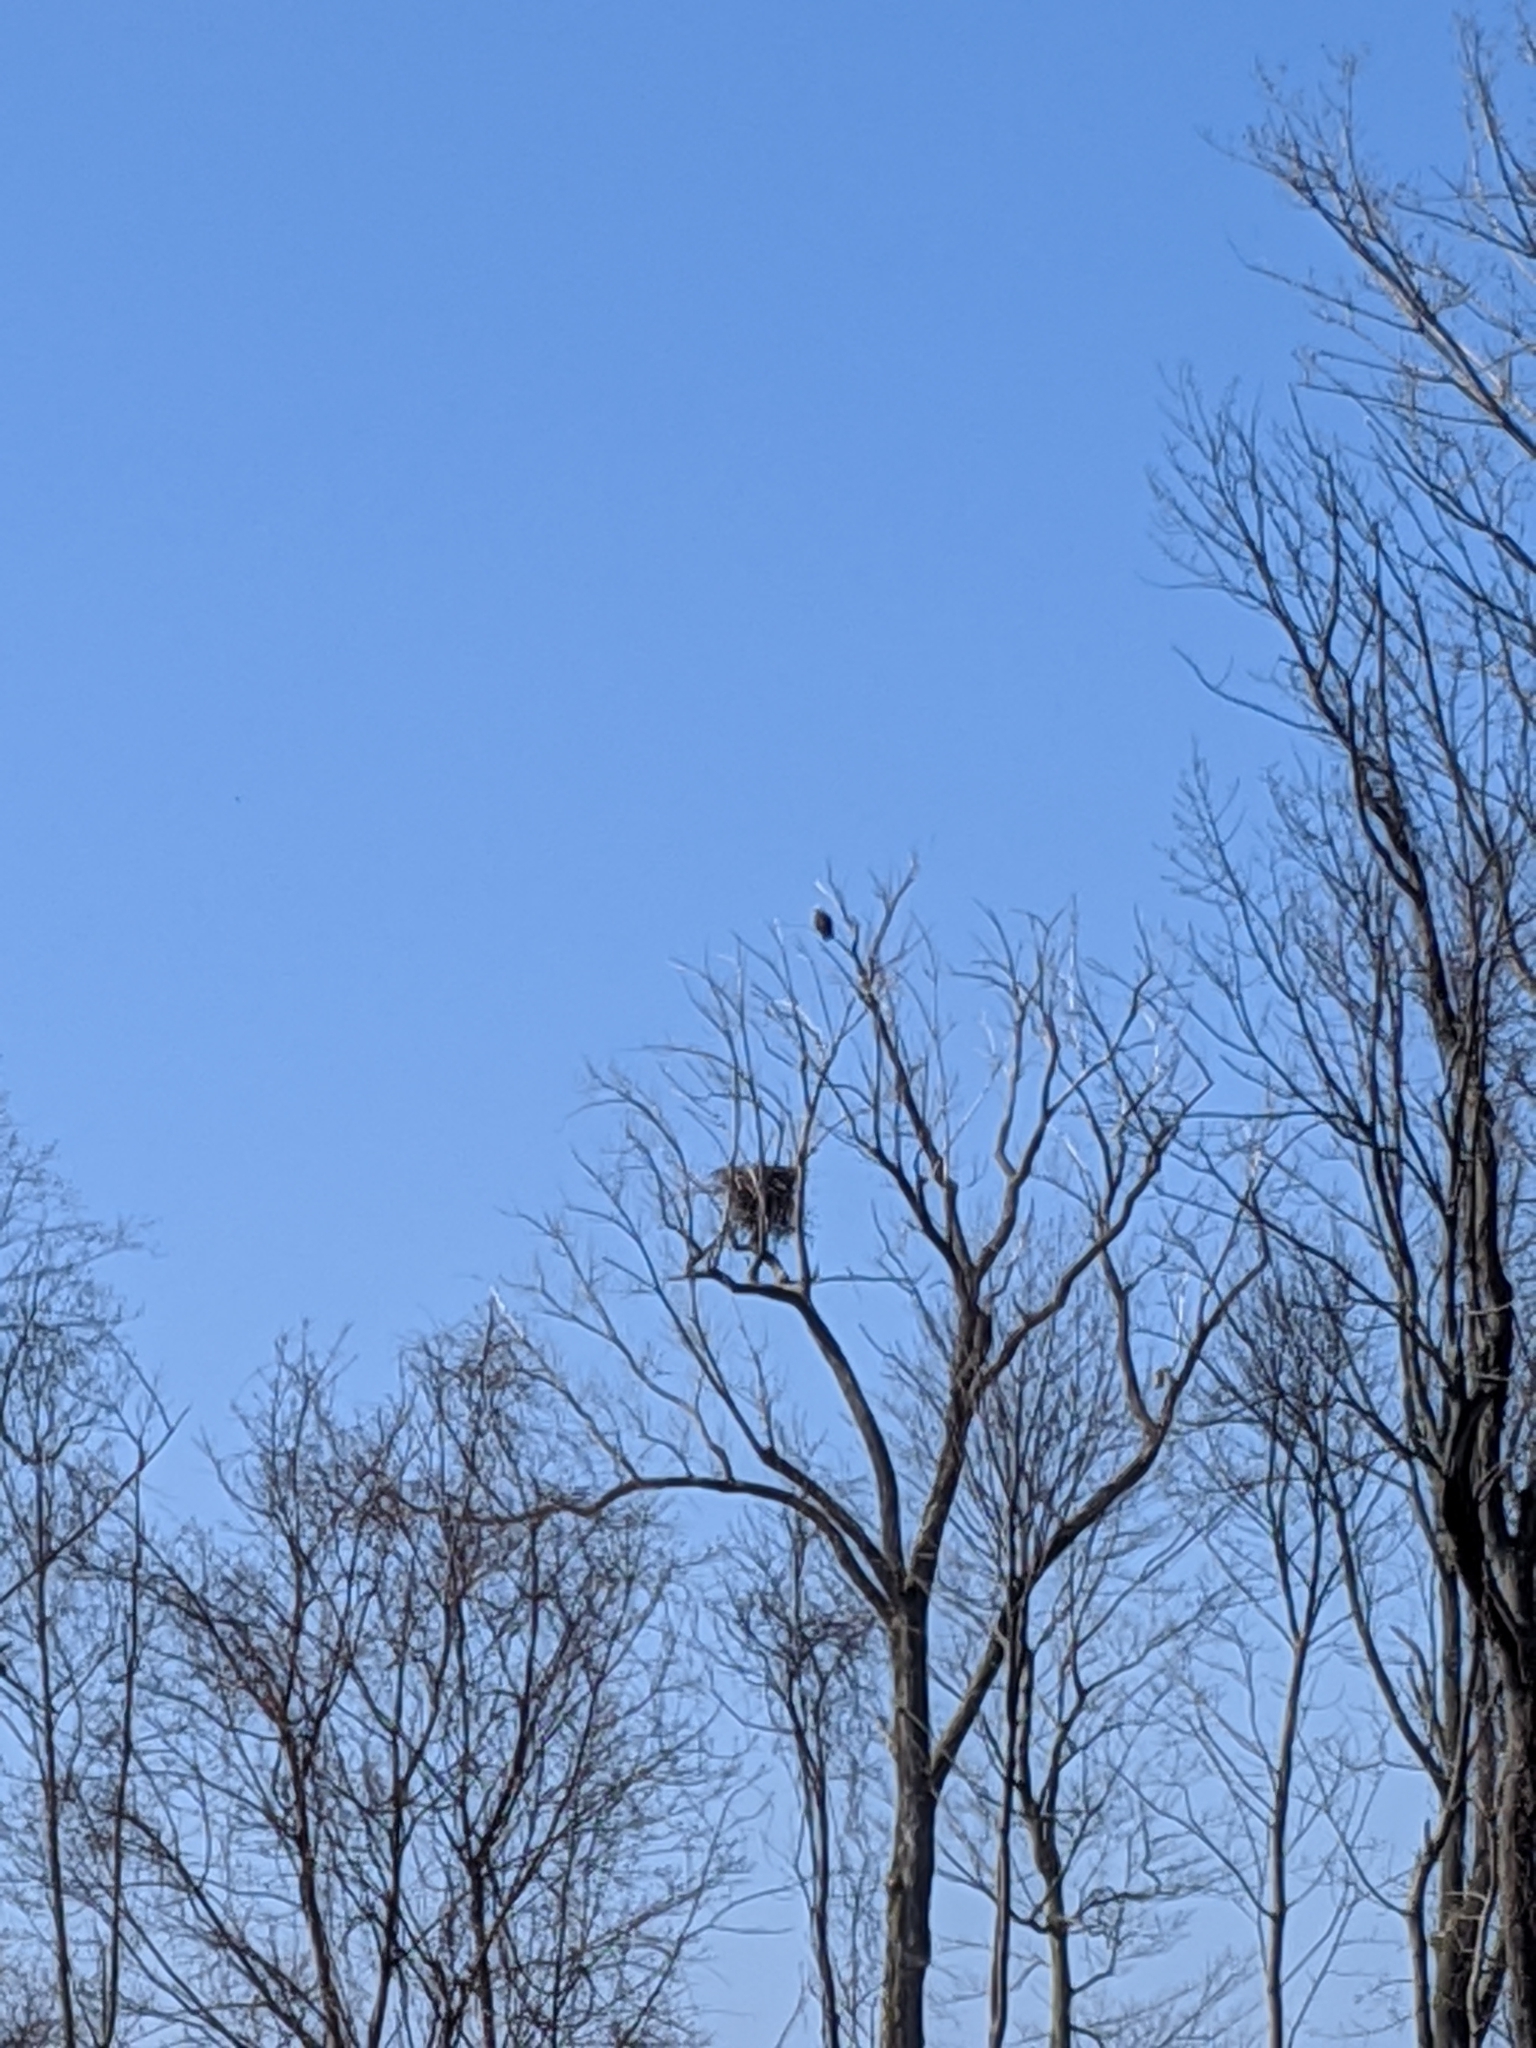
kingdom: Animalia
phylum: Chordata
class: Aves
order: Accipitriformes
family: Accipitridae
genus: Haliaeetus
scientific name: Haliaeetus leucocephalus
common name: Bald eagle
